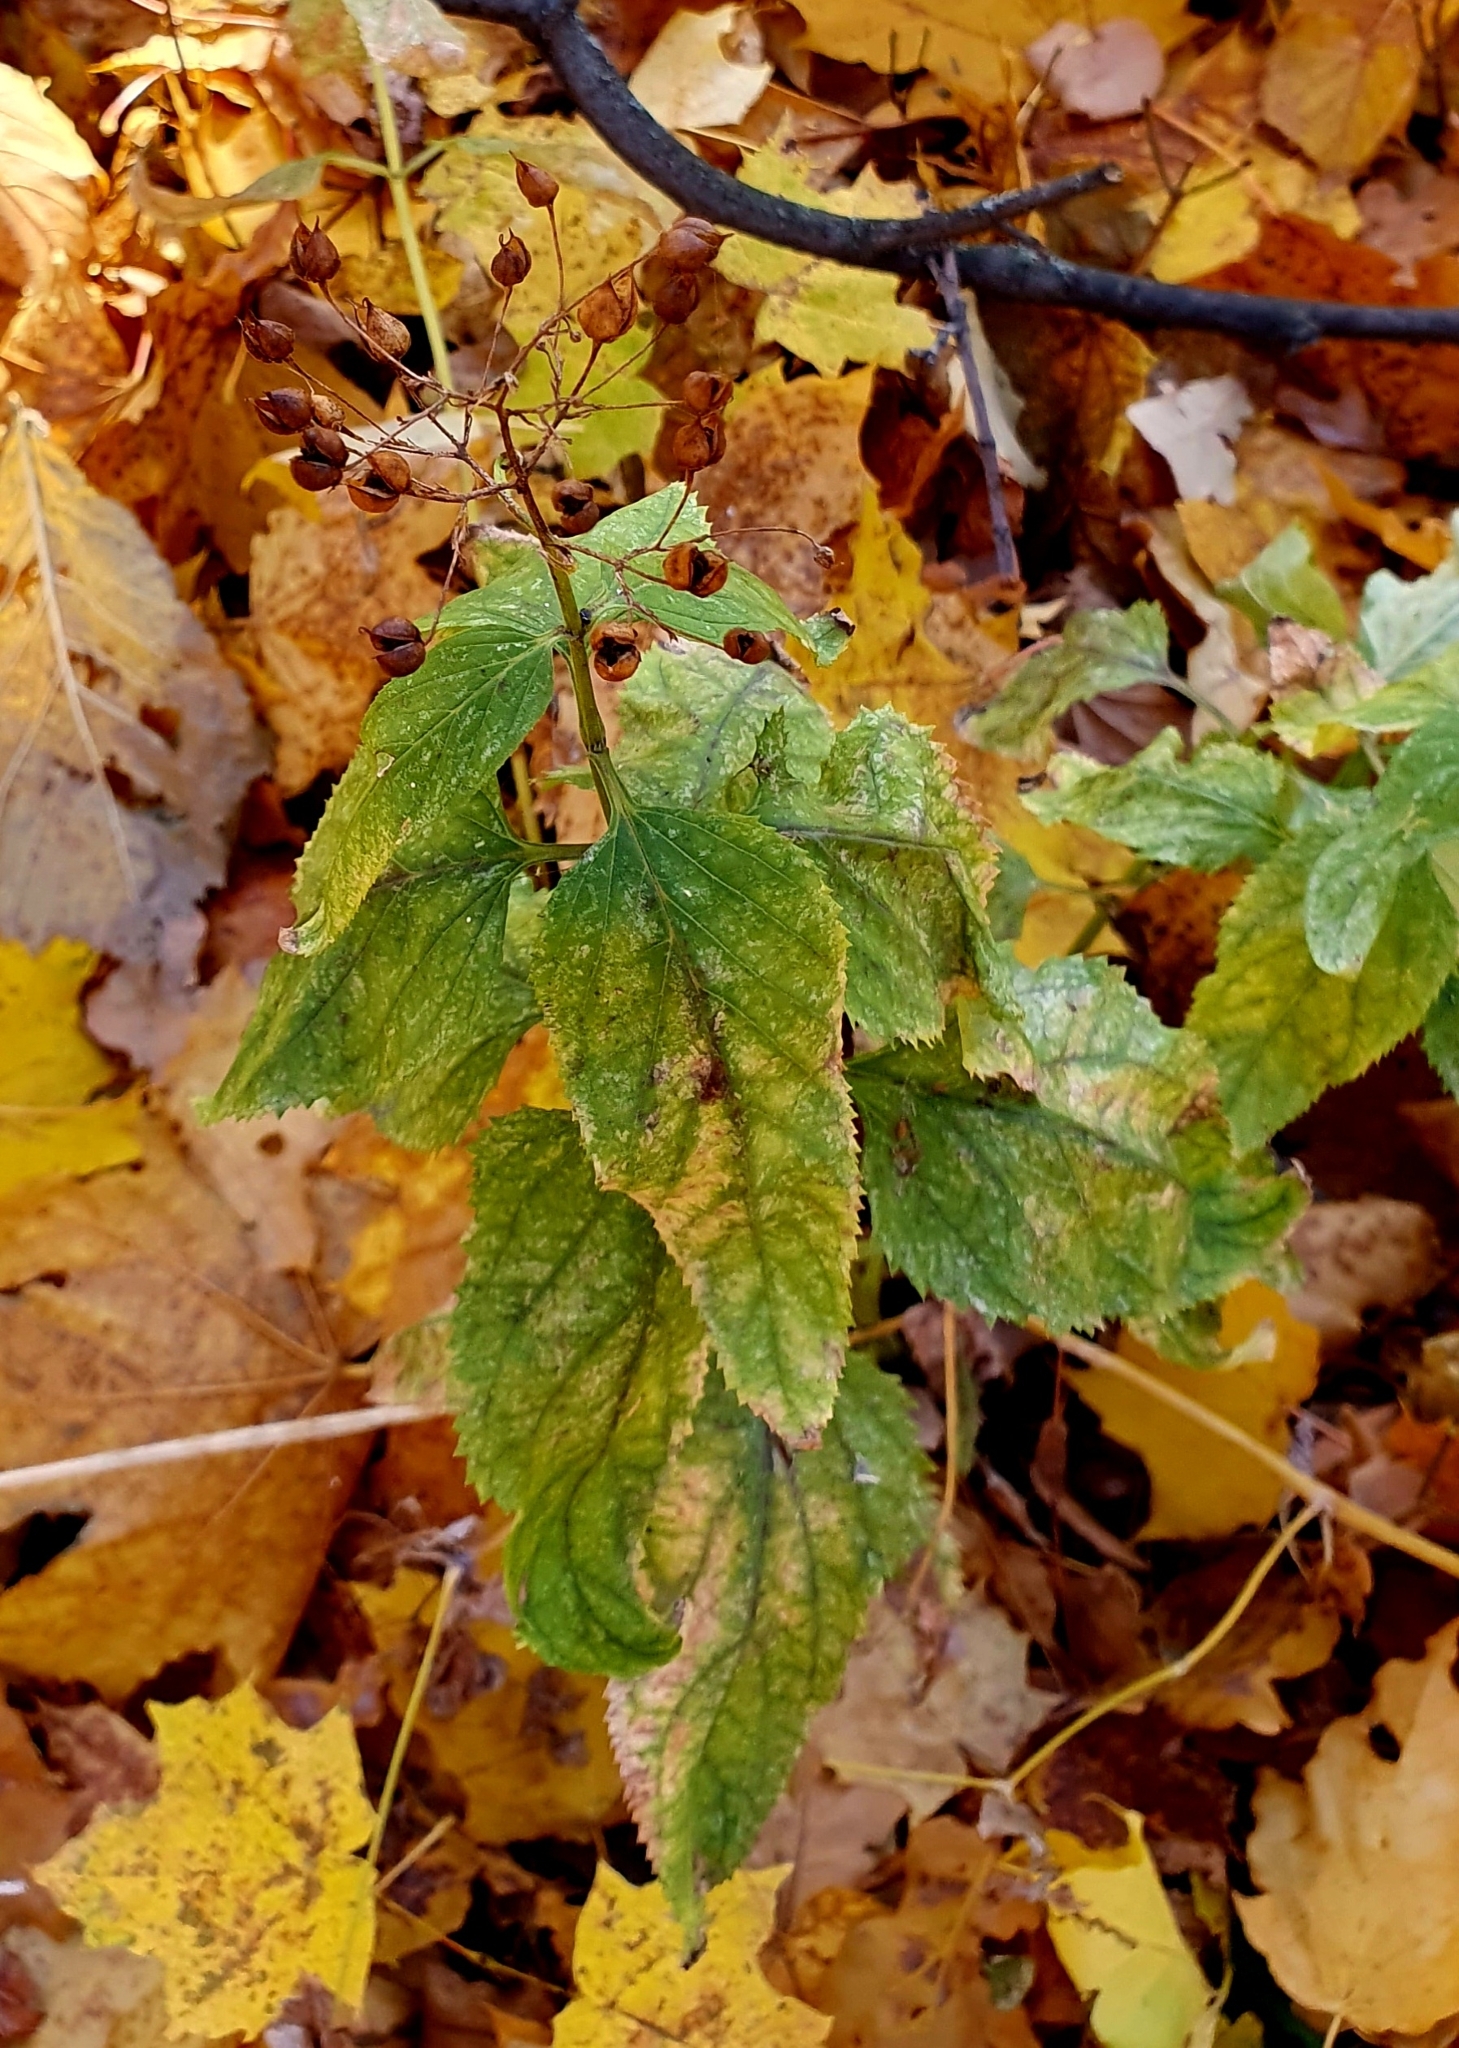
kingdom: Plantae
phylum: Tracheophyta
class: Magnoliopsida
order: Lamiales
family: Scrophulariaceae
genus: Scrophularia
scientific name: Scrophularia nodosa
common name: Common figwort
